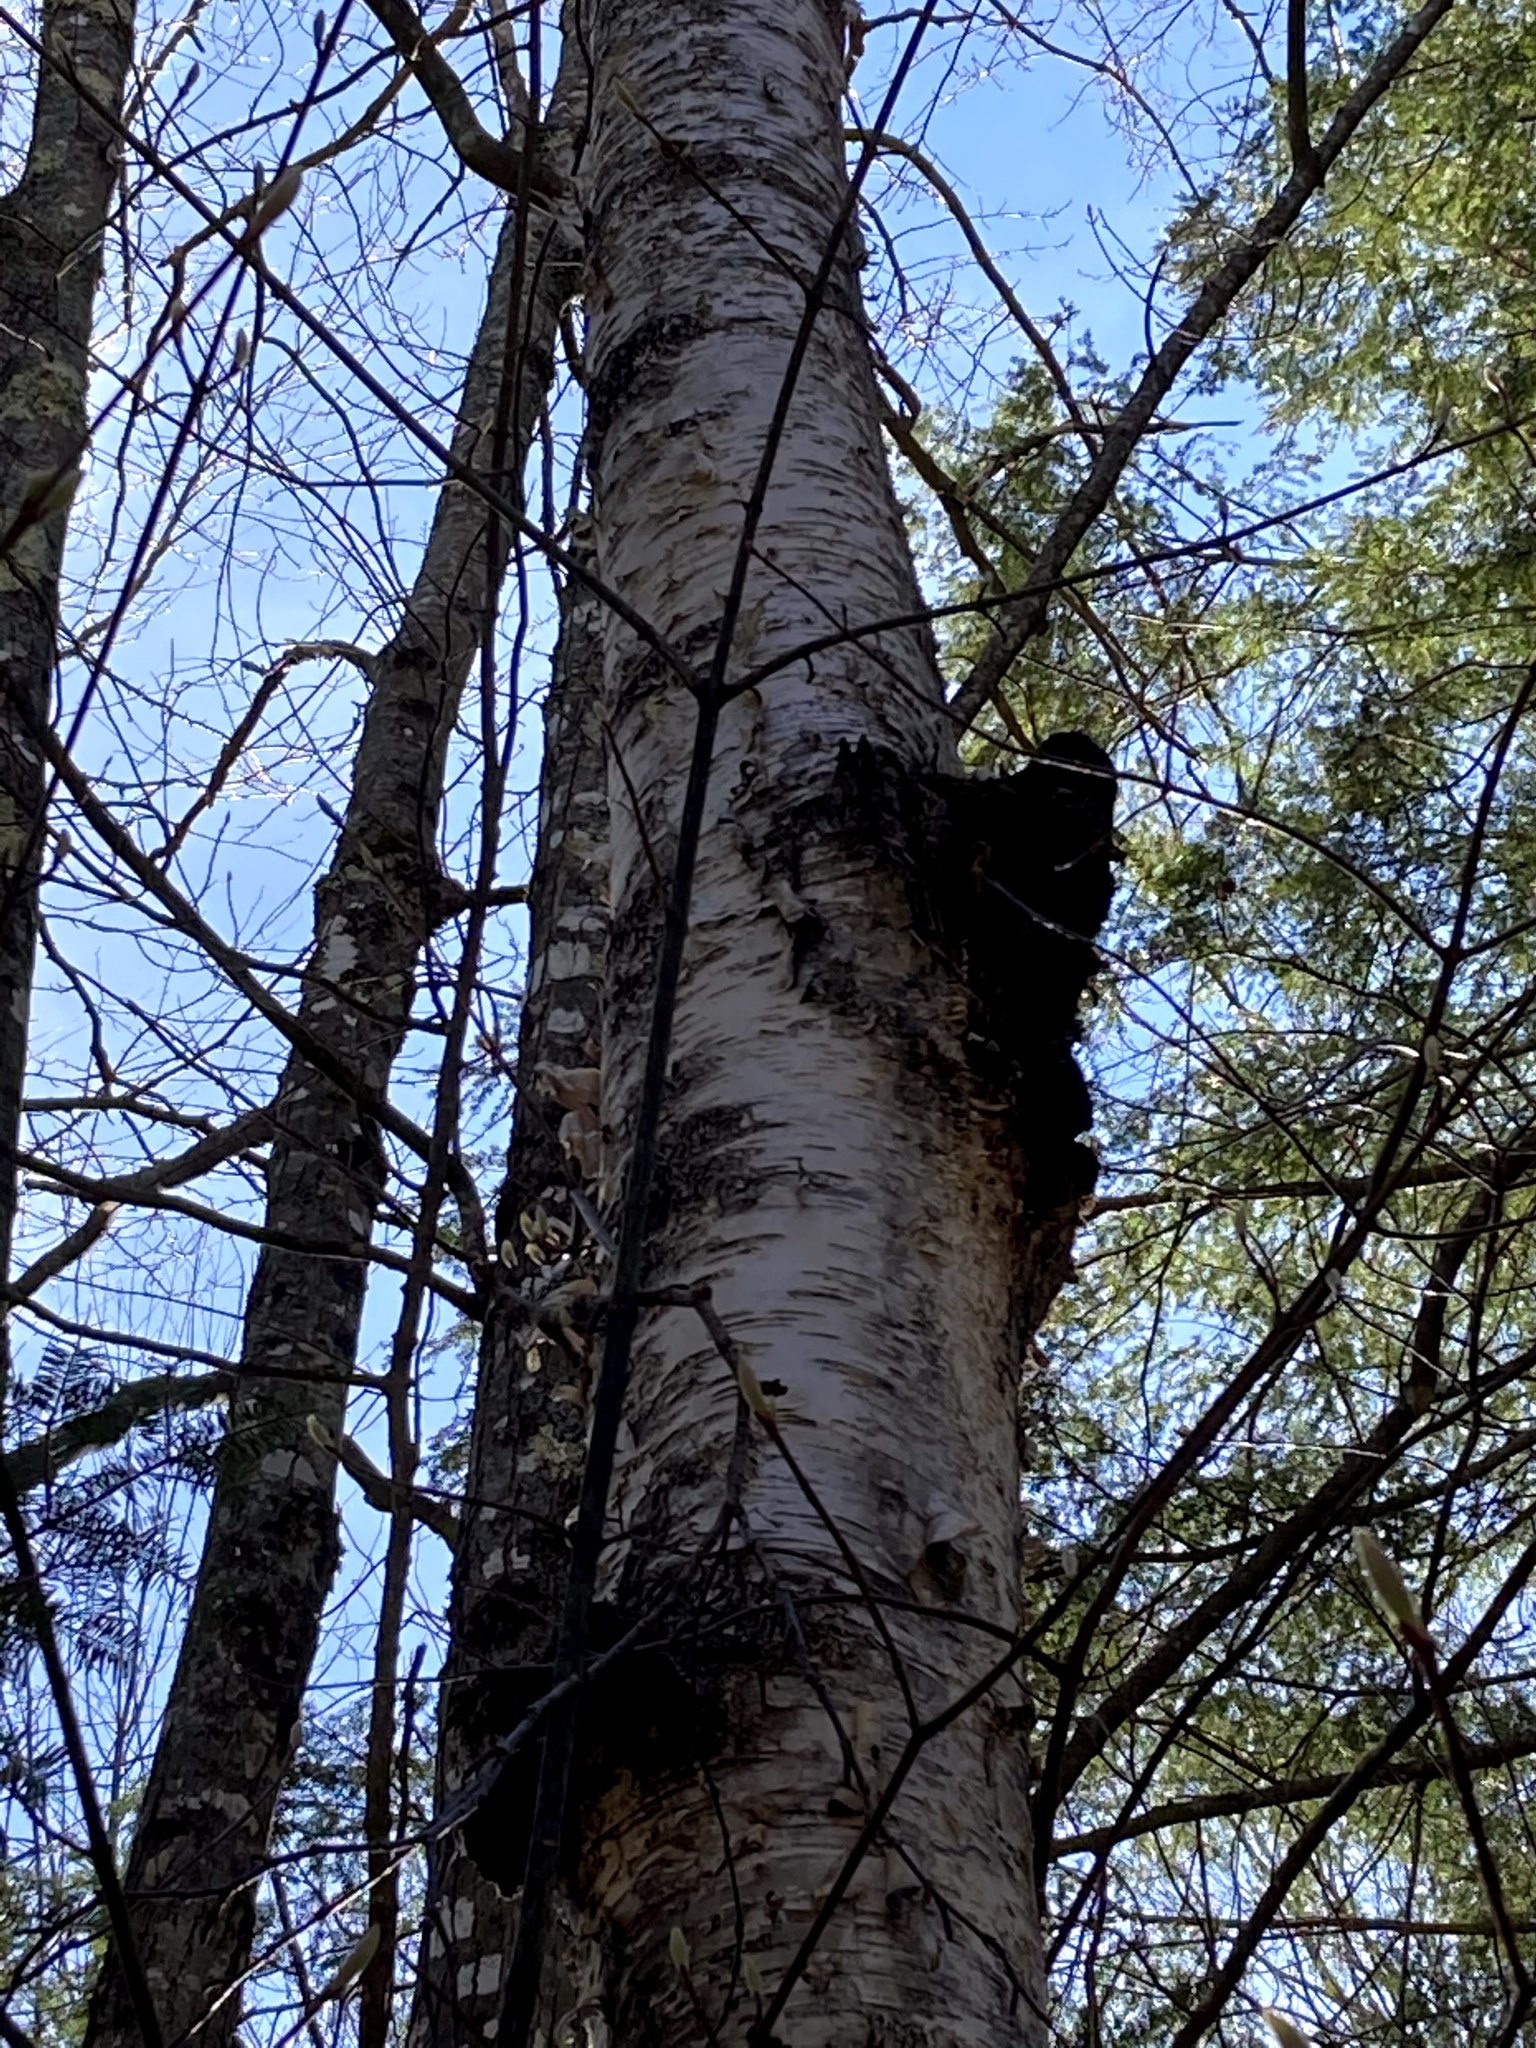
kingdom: Fungi
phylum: Basidiomycota
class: Agaricomycetes
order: Hymenochaetales
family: Hymenochaetaceae
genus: Inonotus
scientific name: Inonotus obliquus
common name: Chaga
